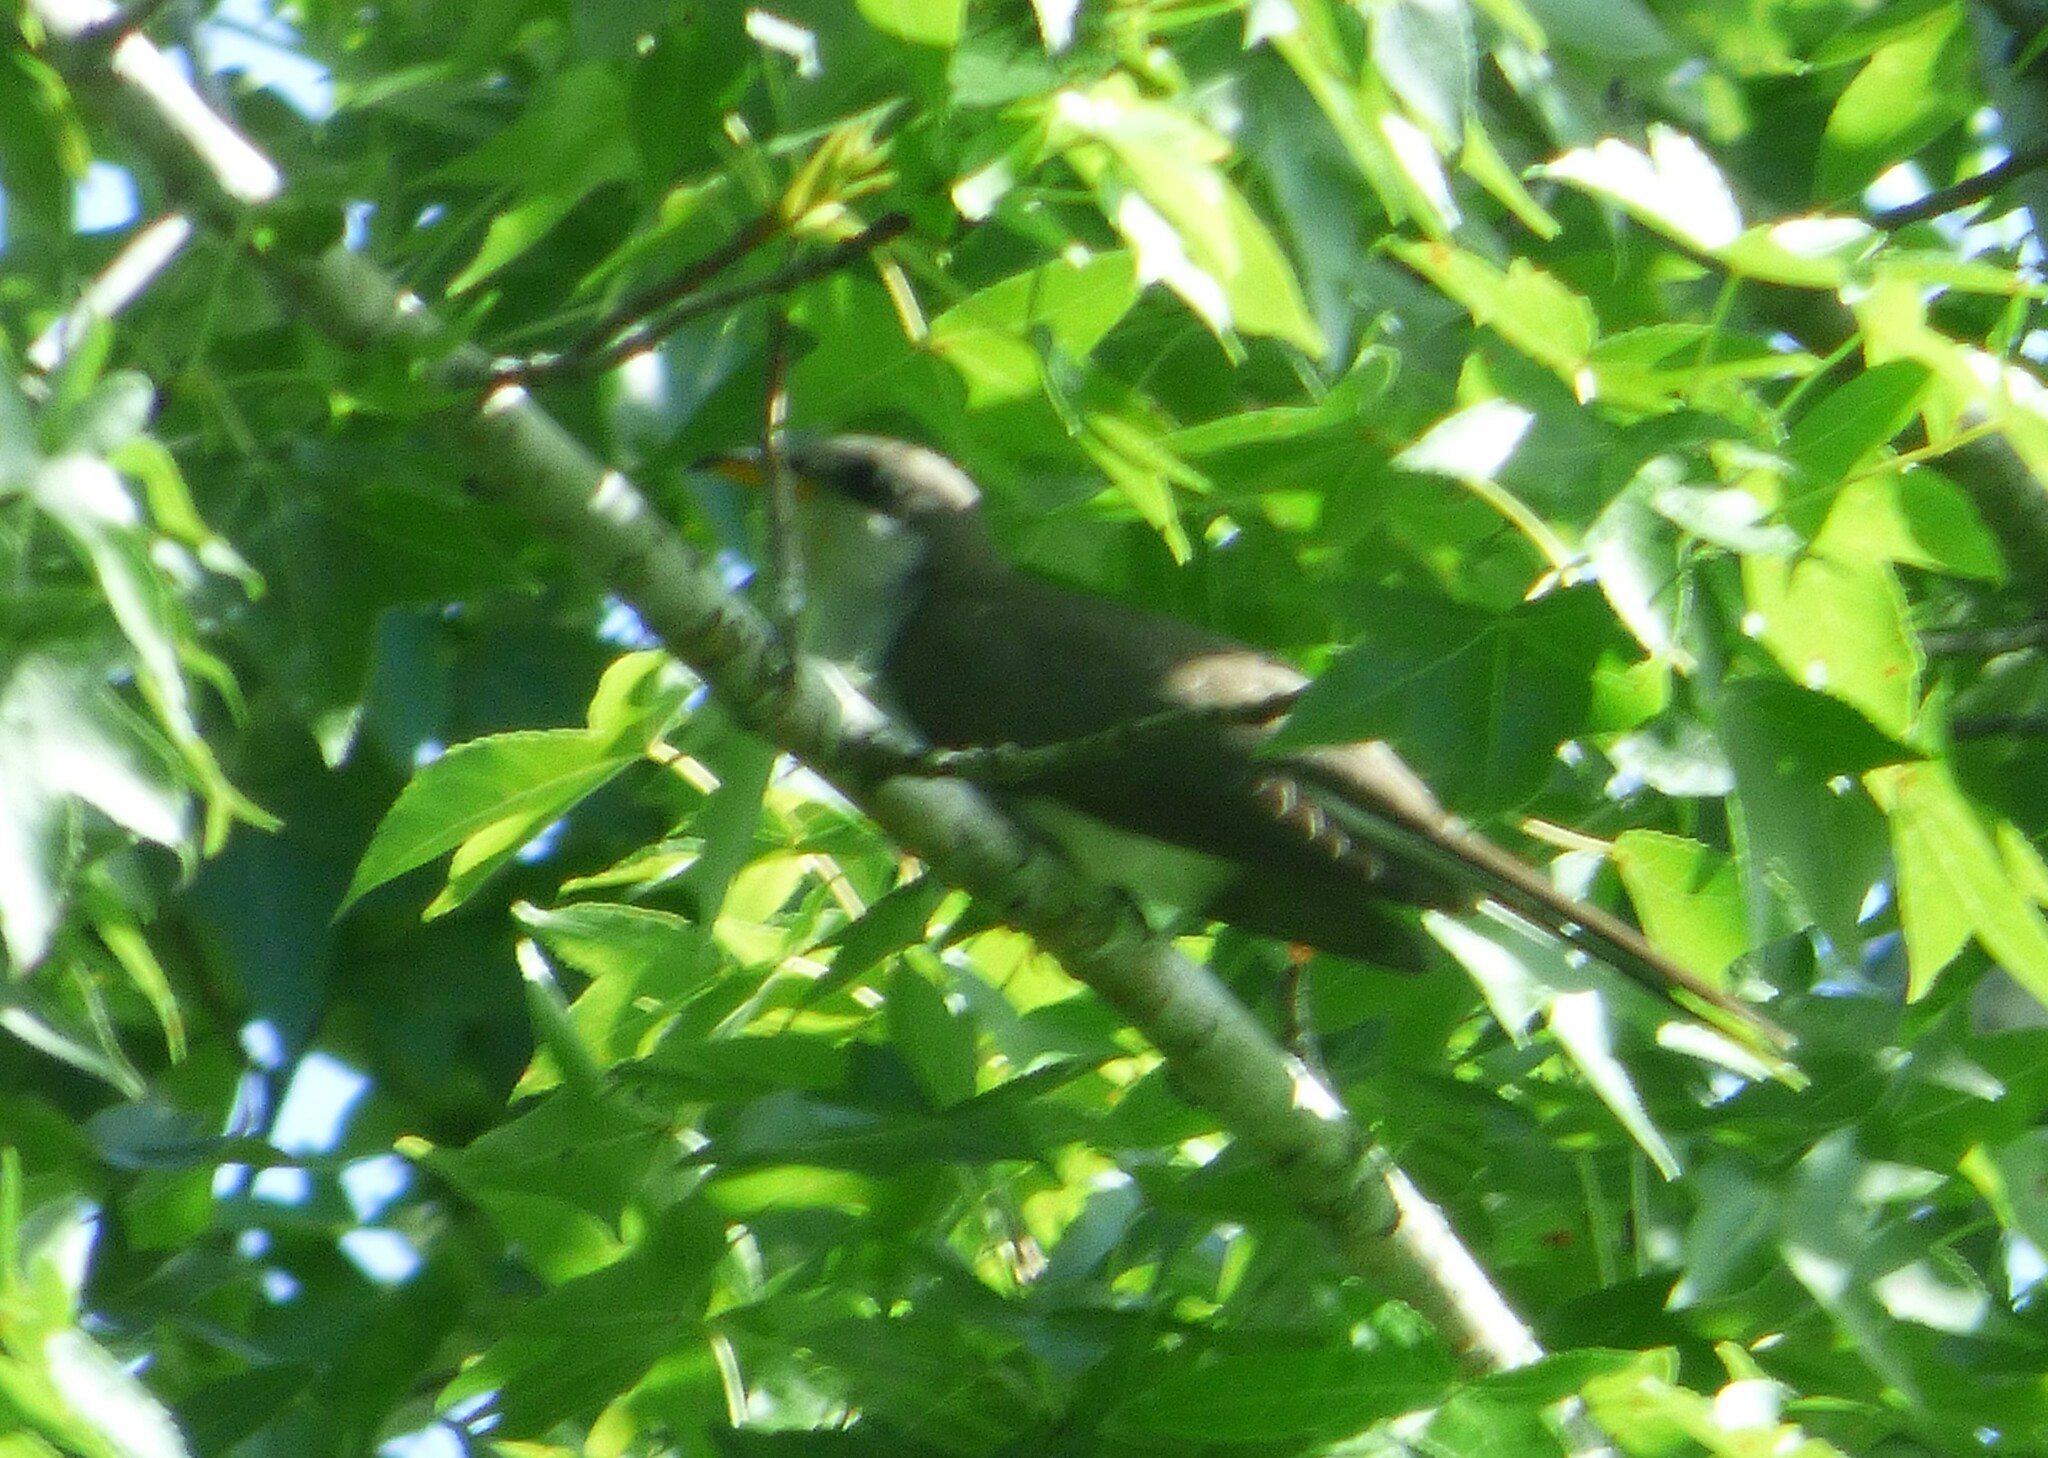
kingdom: Animalia
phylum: Chordata
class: Aves
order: Cuculiformes
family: Cuculidae
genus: Coccyzus
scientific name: Coccyzus americanus
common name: Yellow-billed cuckoo
